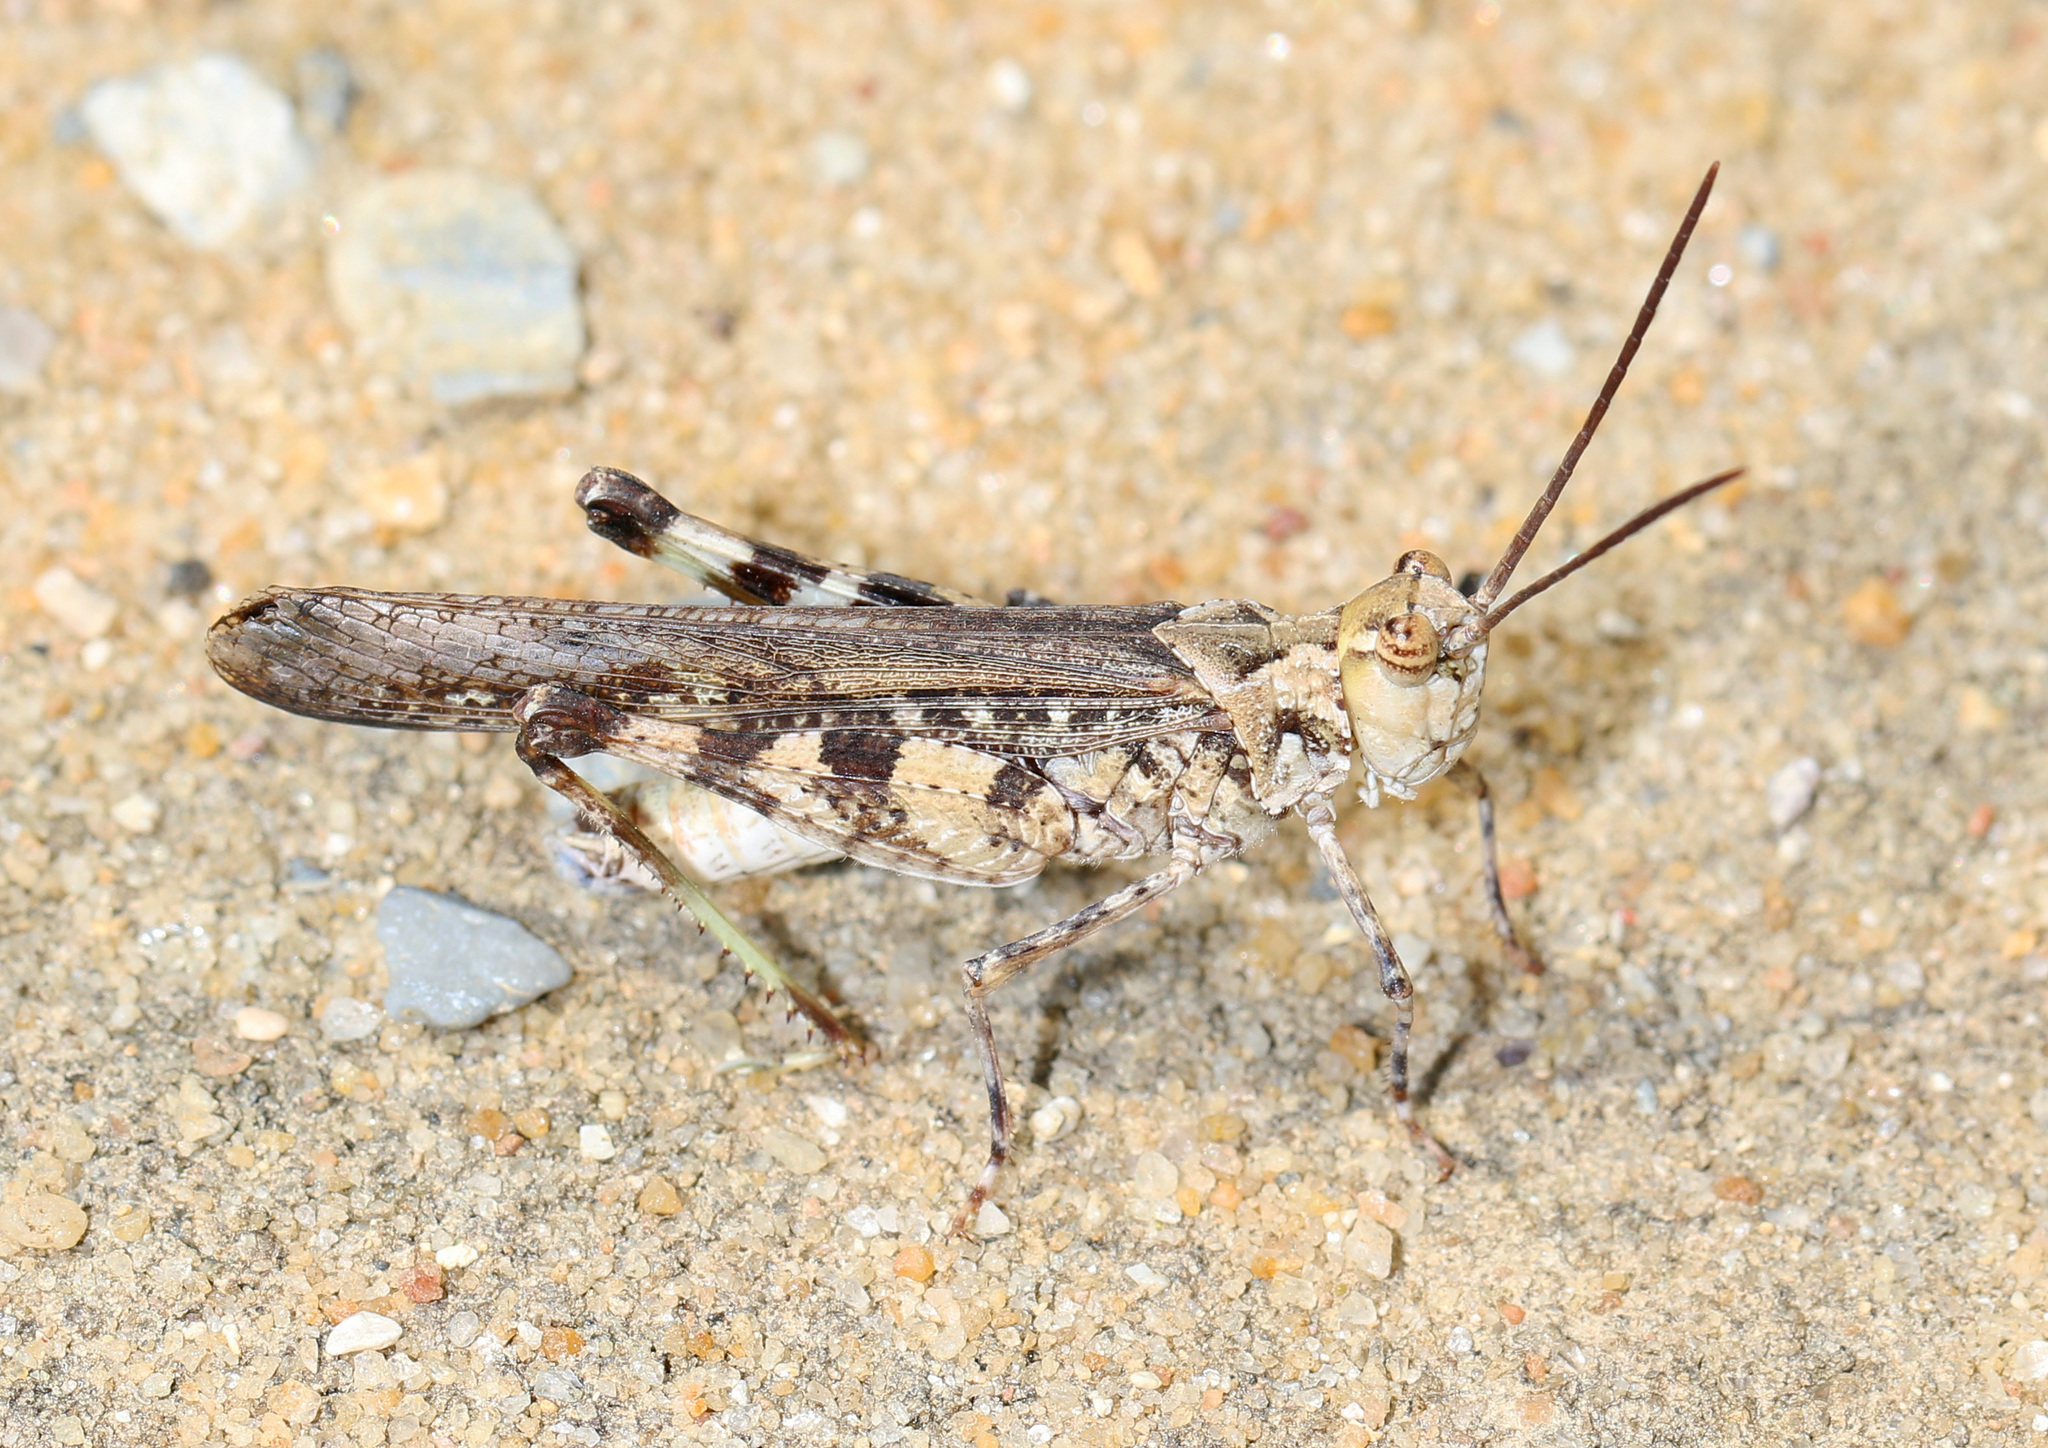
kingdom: Animalia
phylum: Arthropoda
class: Insecta
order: Orthoptera
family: Acrididae
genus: Psinidia
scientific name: Psinidia fenestralis
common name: Long-horned locust
